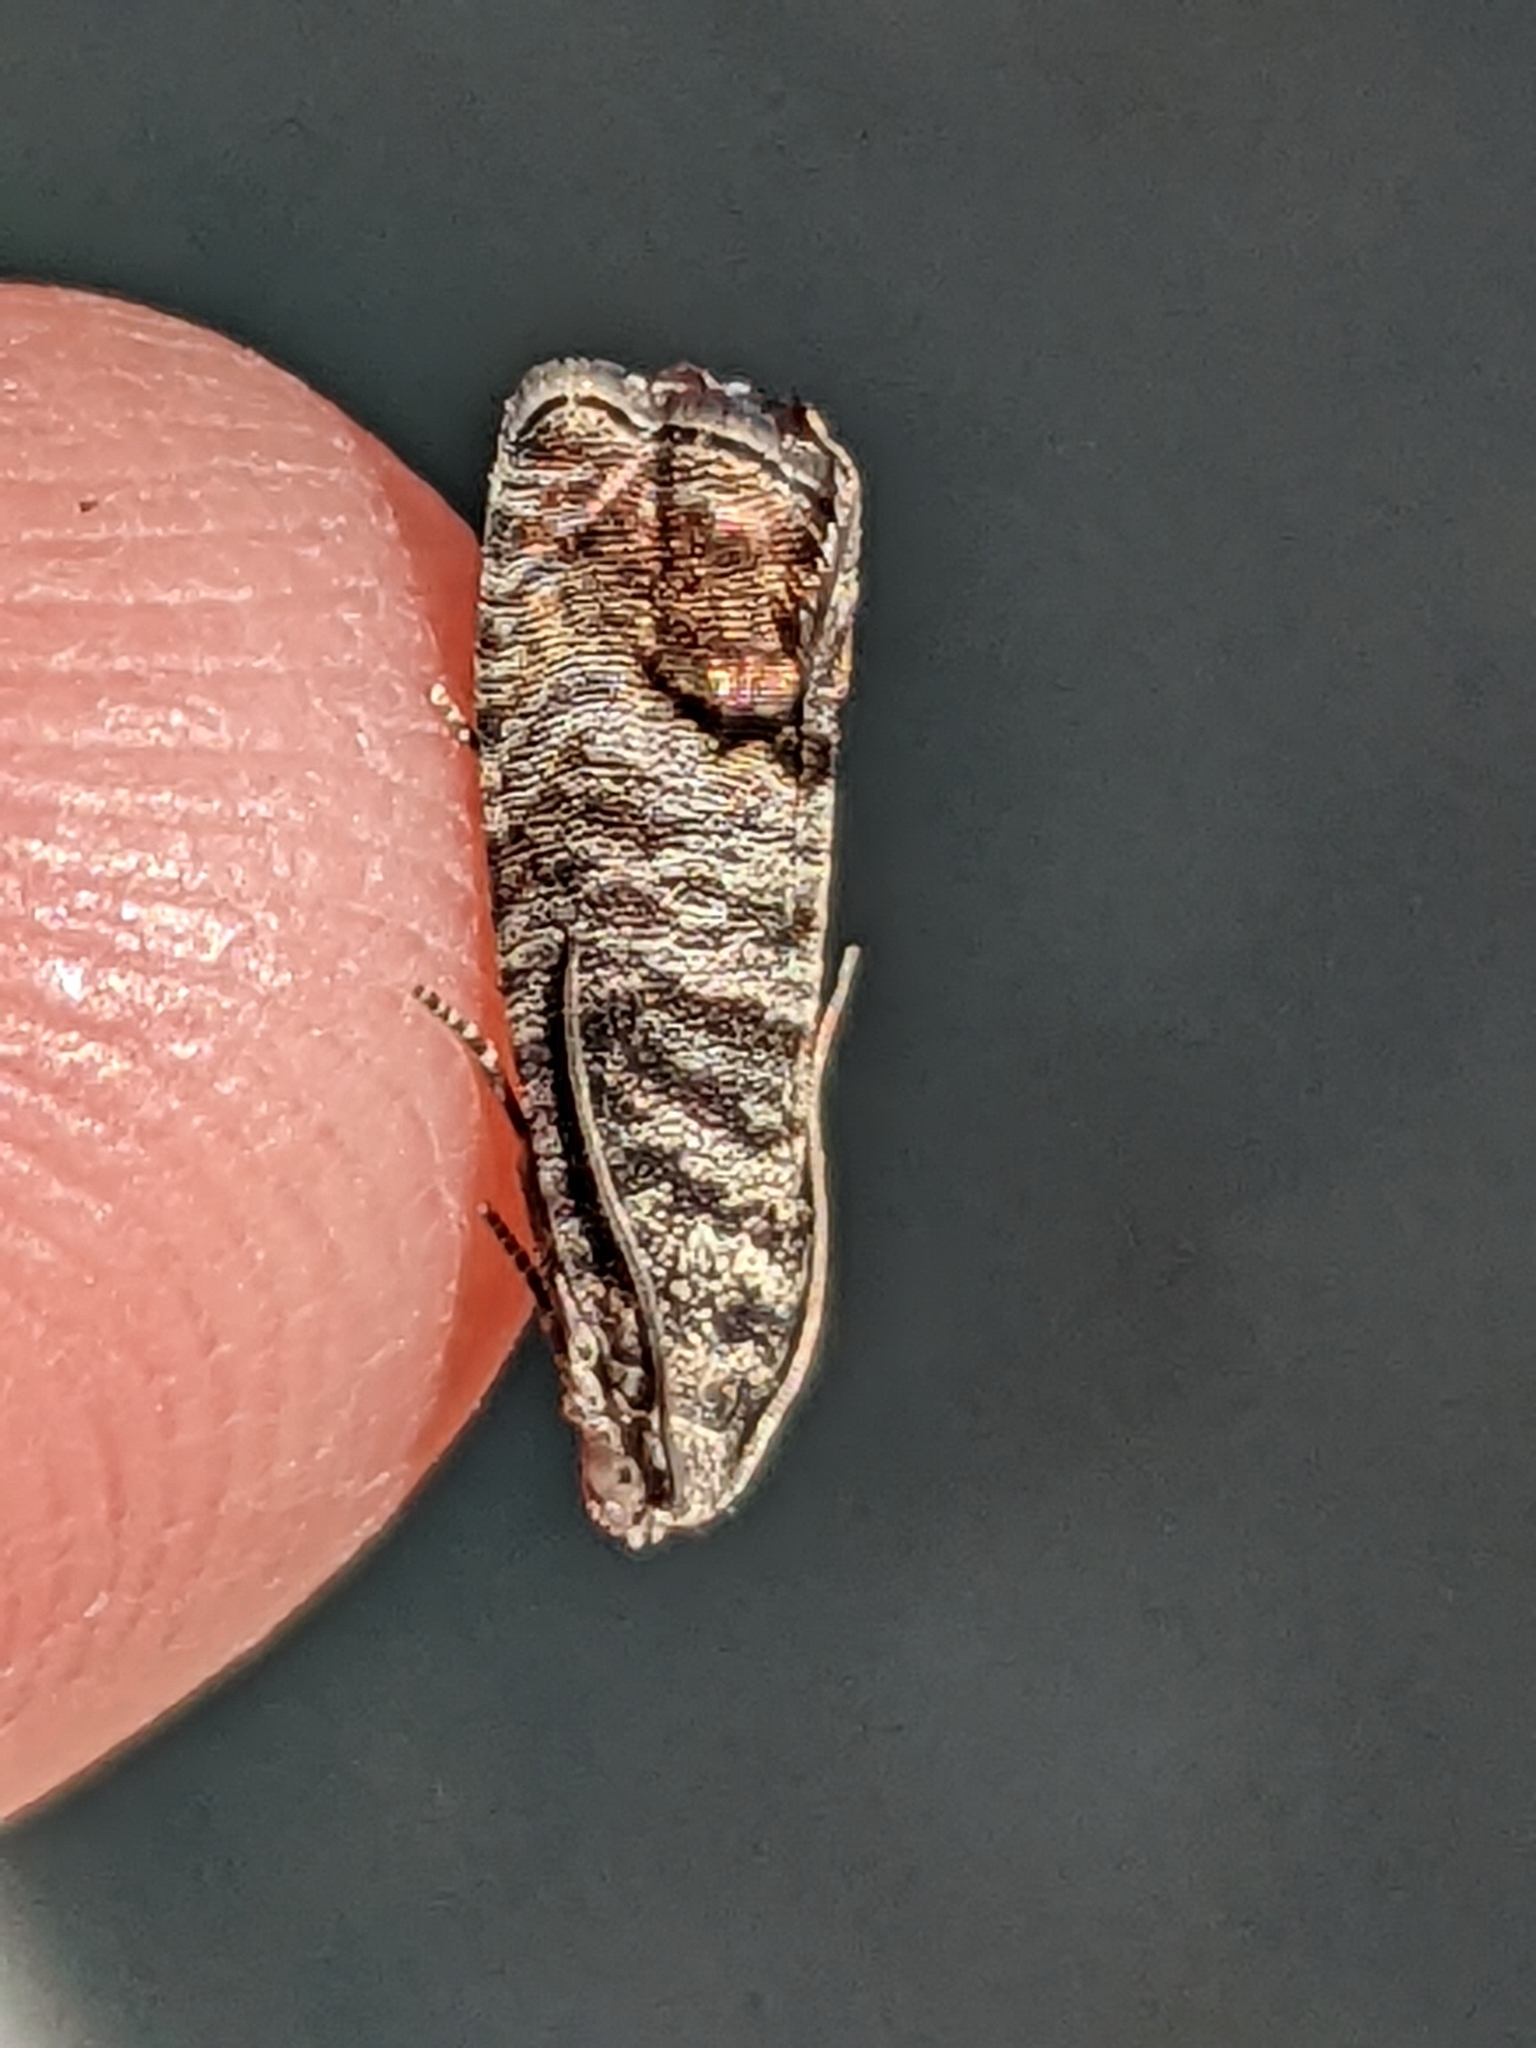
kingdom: Animalia
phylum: Arthropoda
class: Insecta
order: Lepidoptera
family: Tortricidae
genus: Cydia
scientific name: Cydia pomonella
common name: Codling moth
